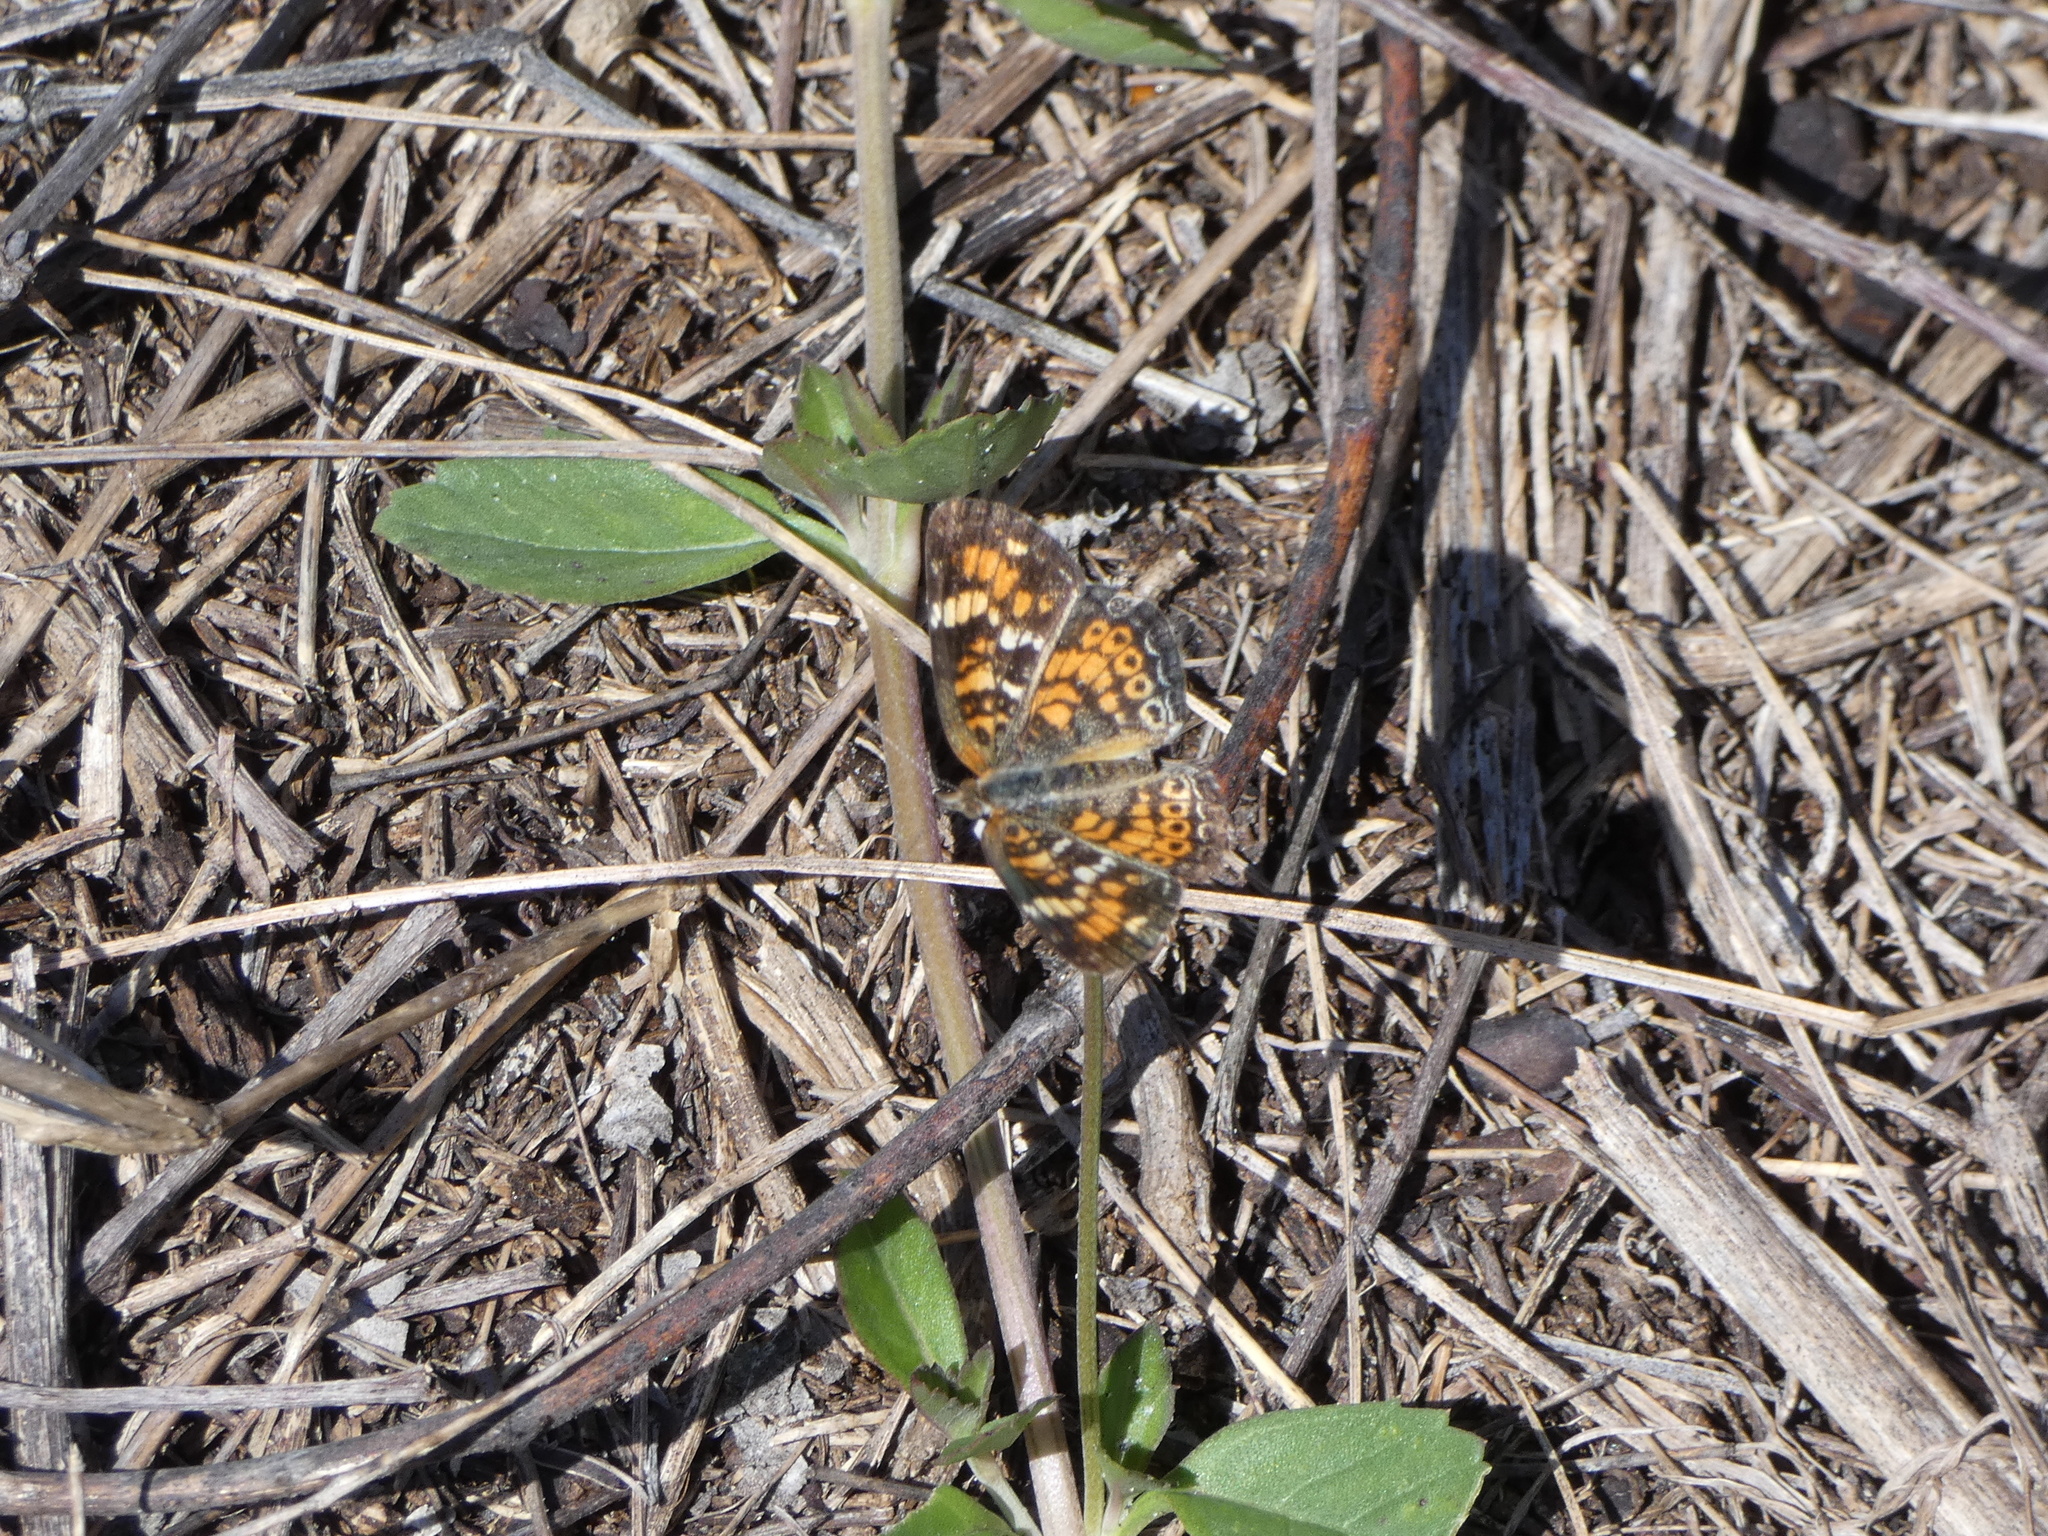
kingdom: Animalia
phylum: Arthropoda
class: Insecta
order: Lepidoptera
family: Nymphalidae
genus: Phyciodes
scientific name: Phyciodes phaon
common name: Phaon crescent
